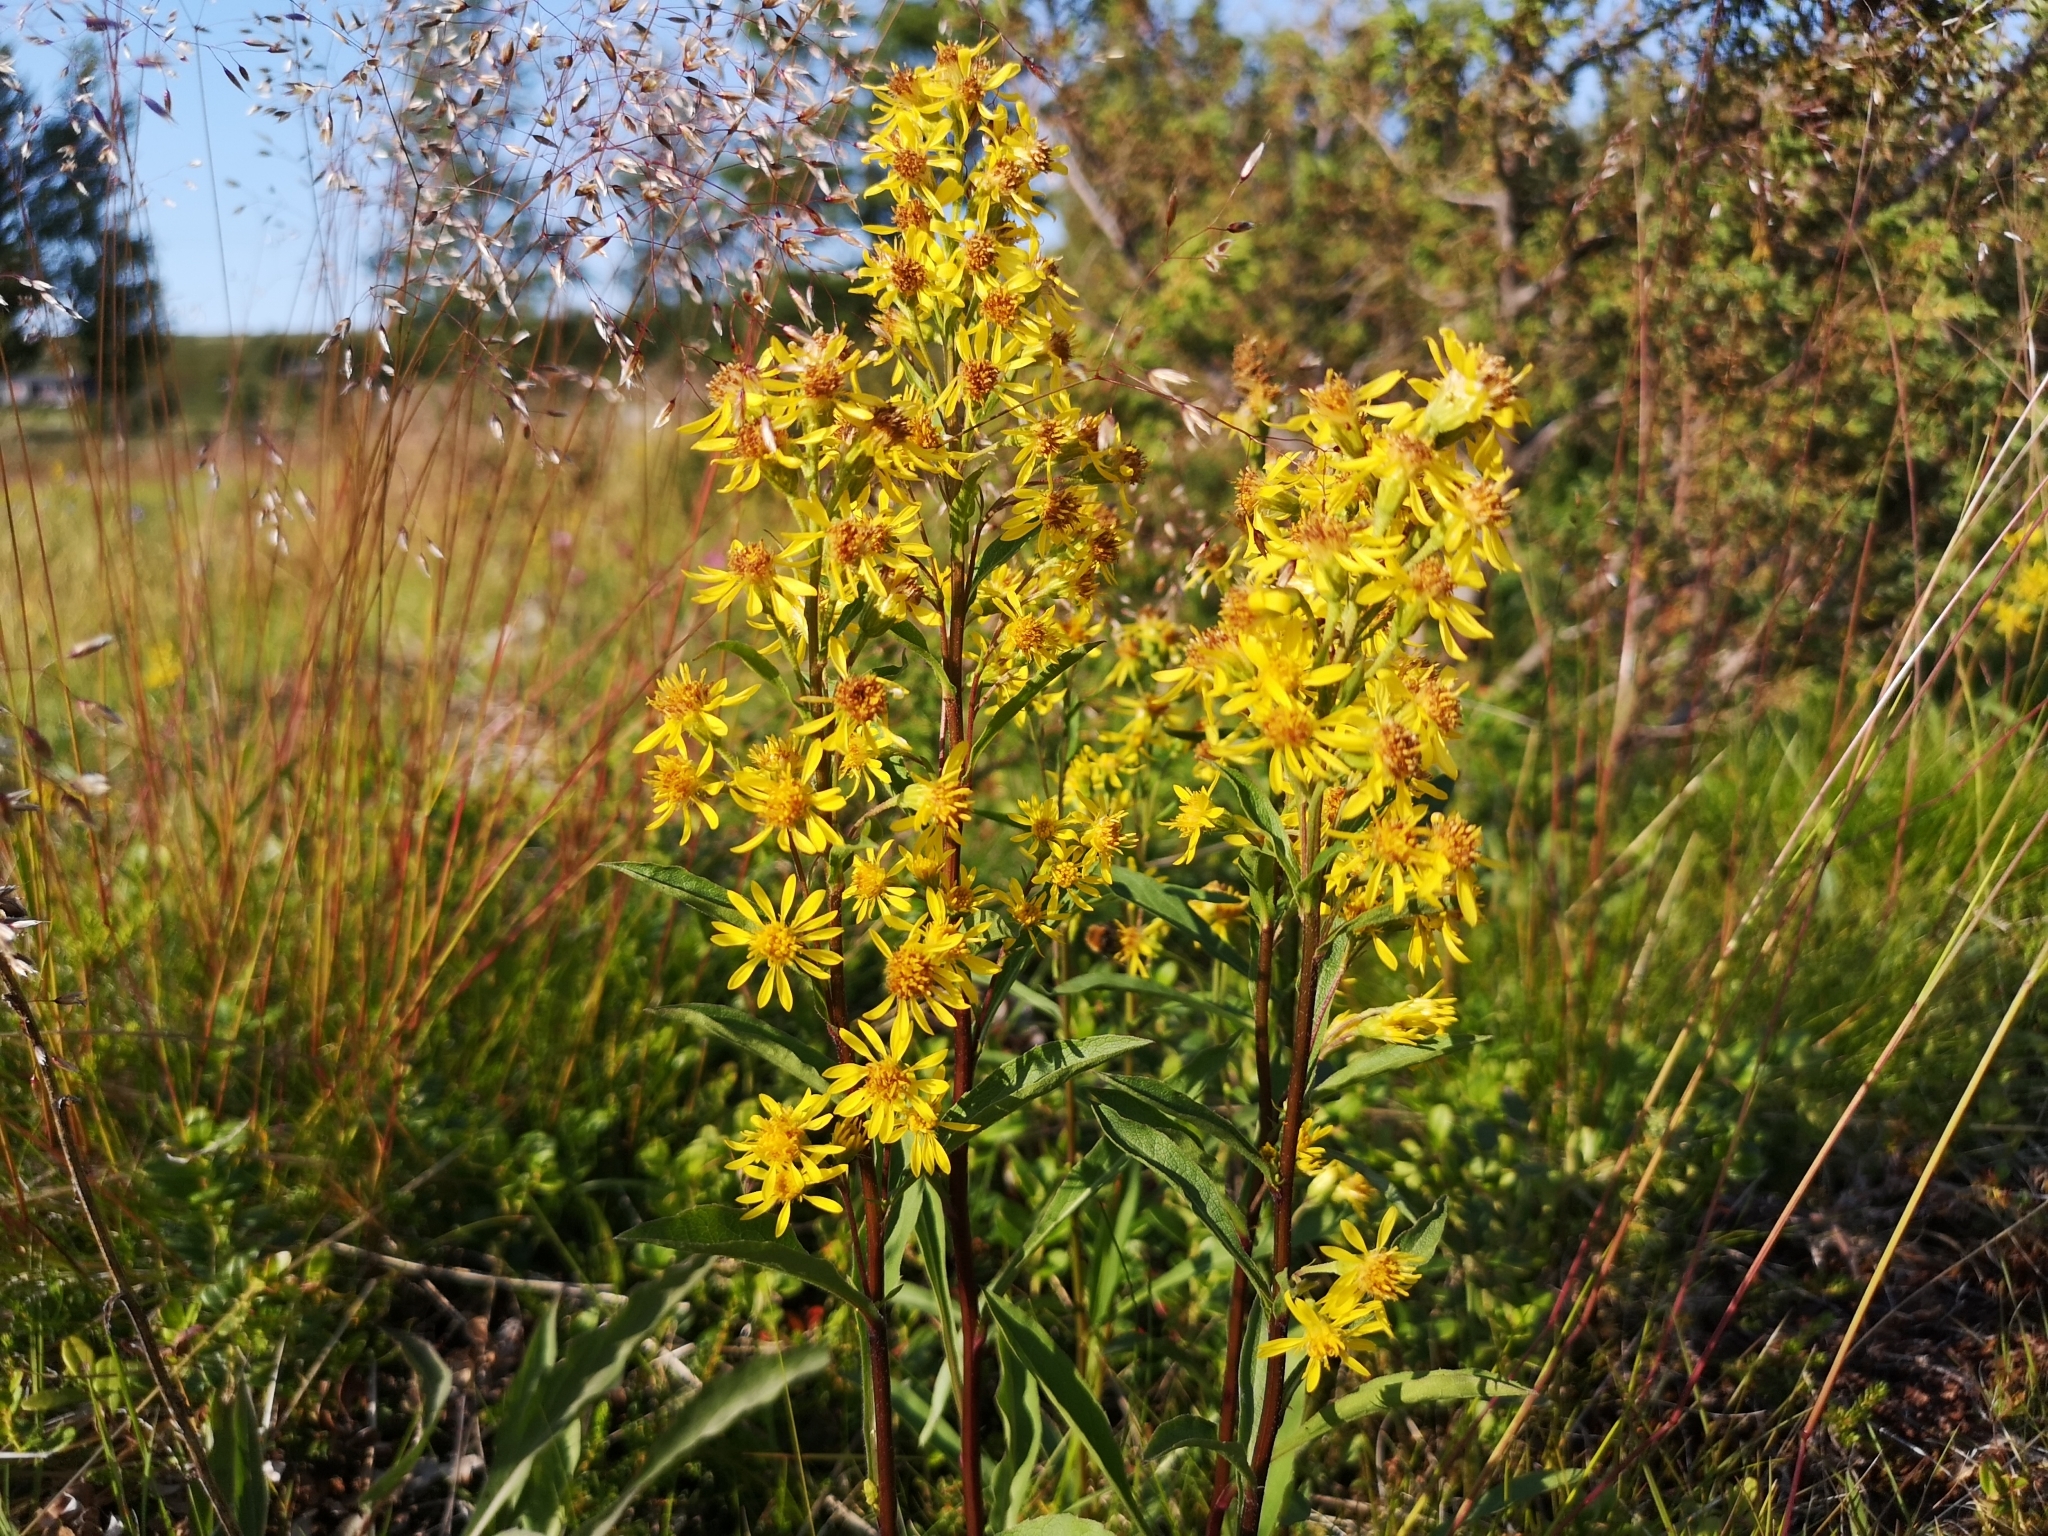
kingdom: Plantae
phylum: Tracheophyta
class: Magnoliopsida
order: Asterales
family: Asteraceae
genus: Solidago
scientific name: Solidago virgaurea
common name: Goldenrod
